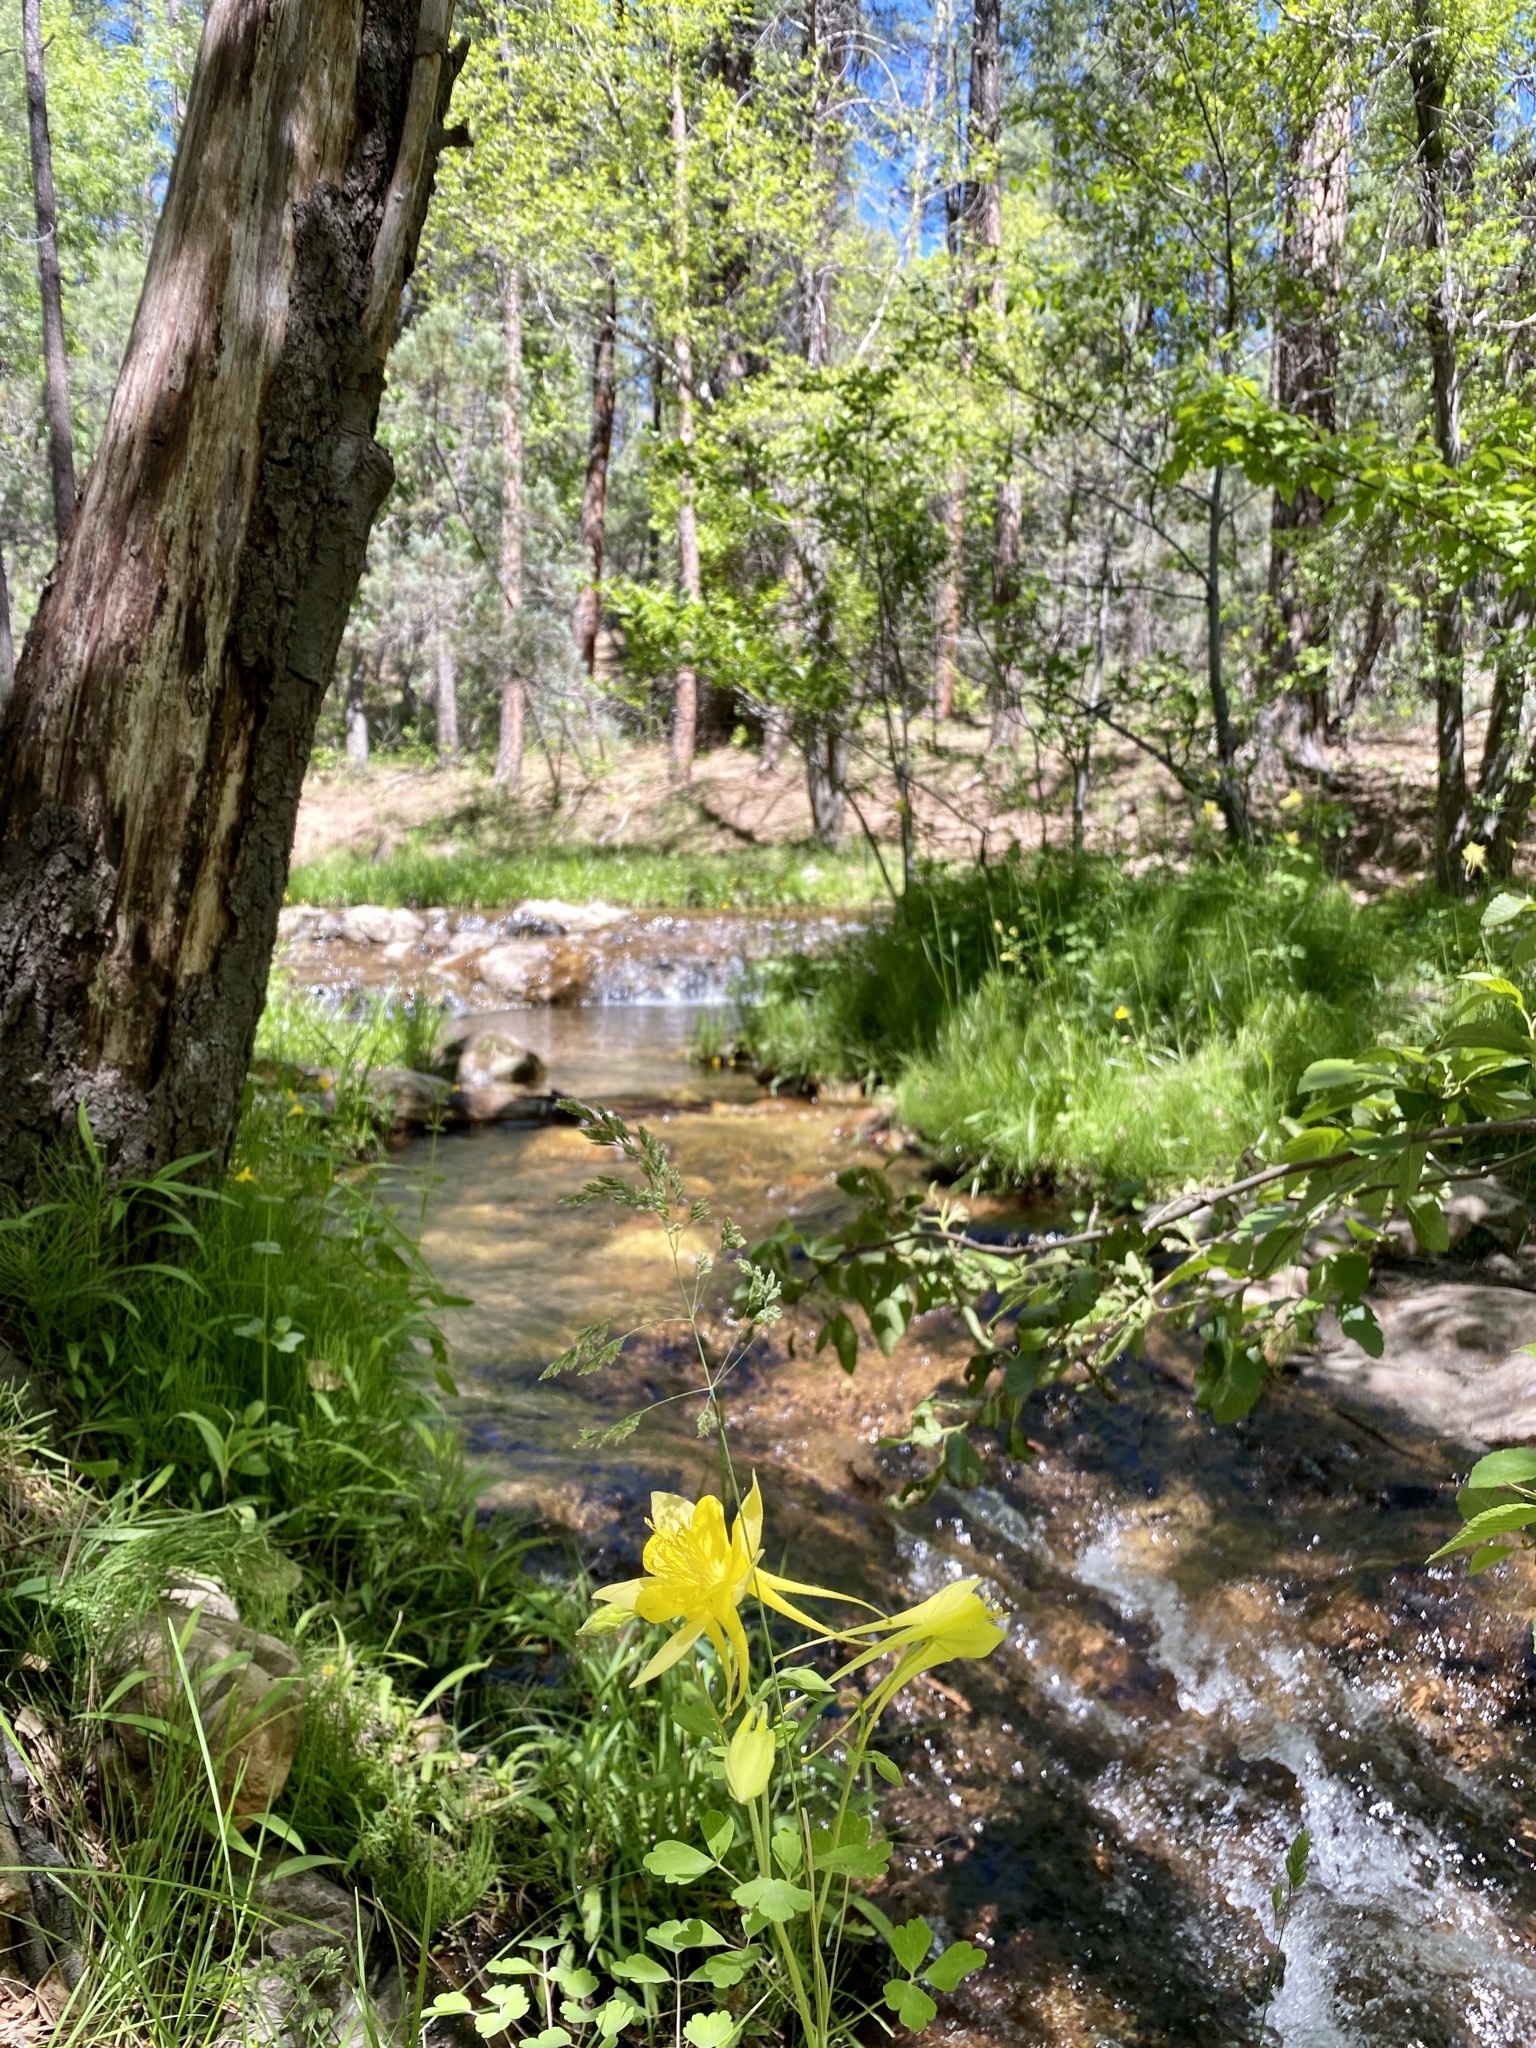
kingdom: Plantae
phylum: Tracheophyta
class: Magnoliopsida
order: Ranunculales
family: Ranunculaceae
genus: Aquilegia
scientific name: Aquilegia chrysantha
